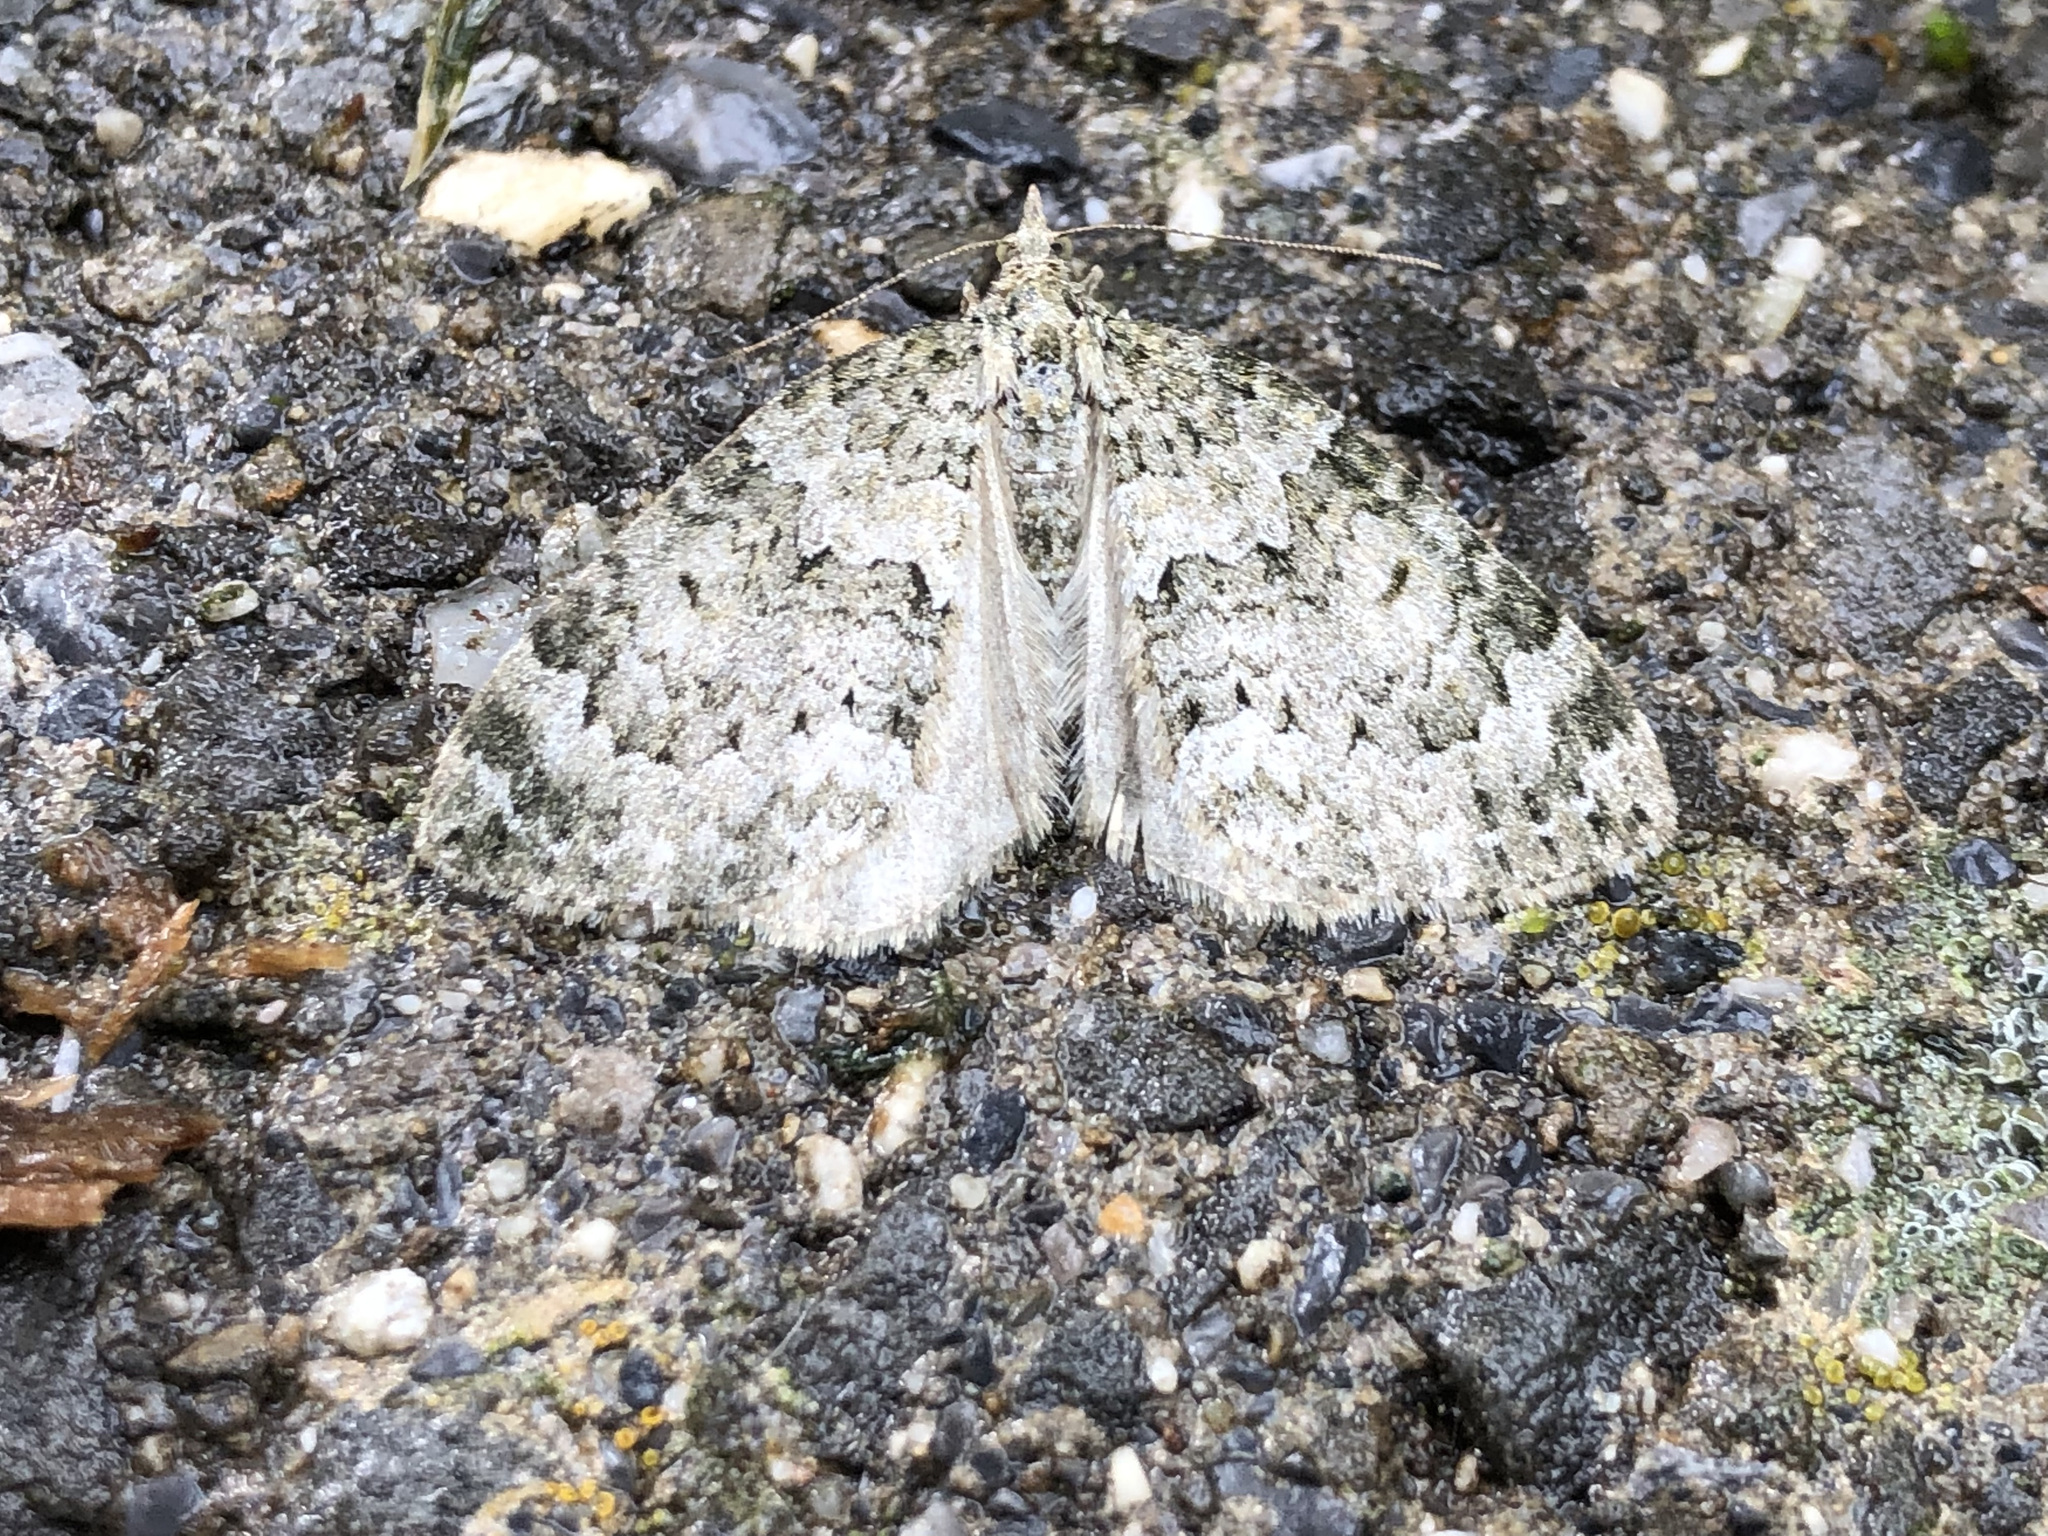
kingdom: Animalia
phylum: Arthropoda
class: Insecta
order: Lepidoptera
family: Geometridae
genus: Chloroclysta
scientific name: Chloroclysta siterata
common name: Red-green carpet
